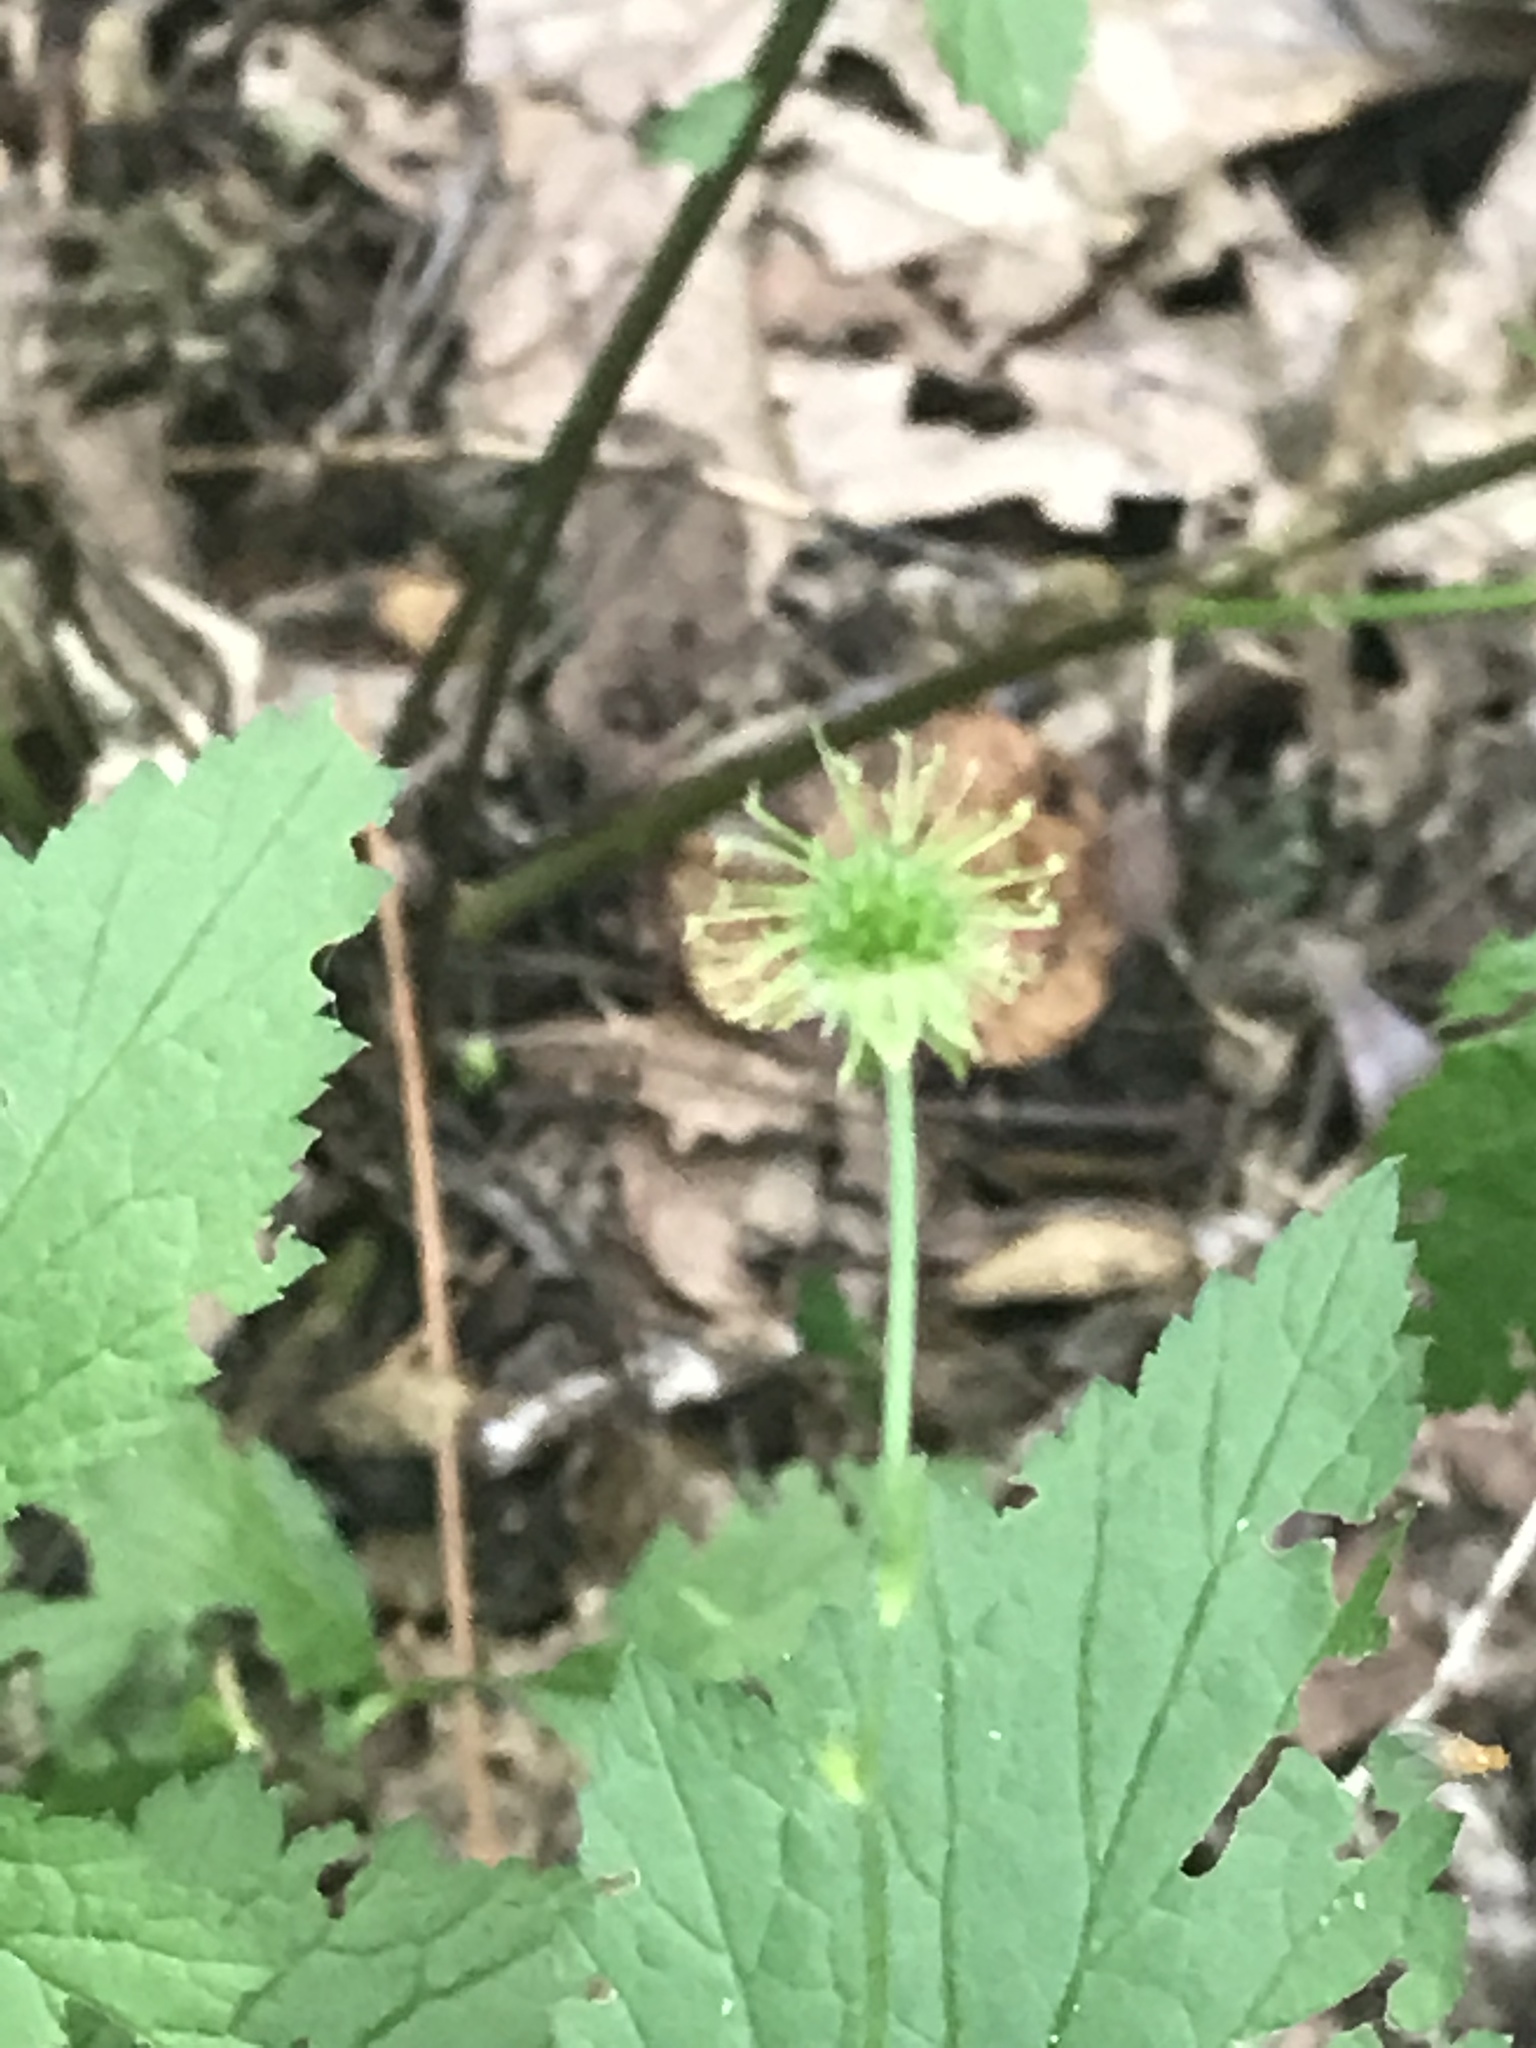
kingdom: Plantae
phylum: Tracheophyta
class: Magnoliopsida
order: Rosales
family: Rosaceae
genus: Geum
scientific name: Geum canadense
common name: White avens
